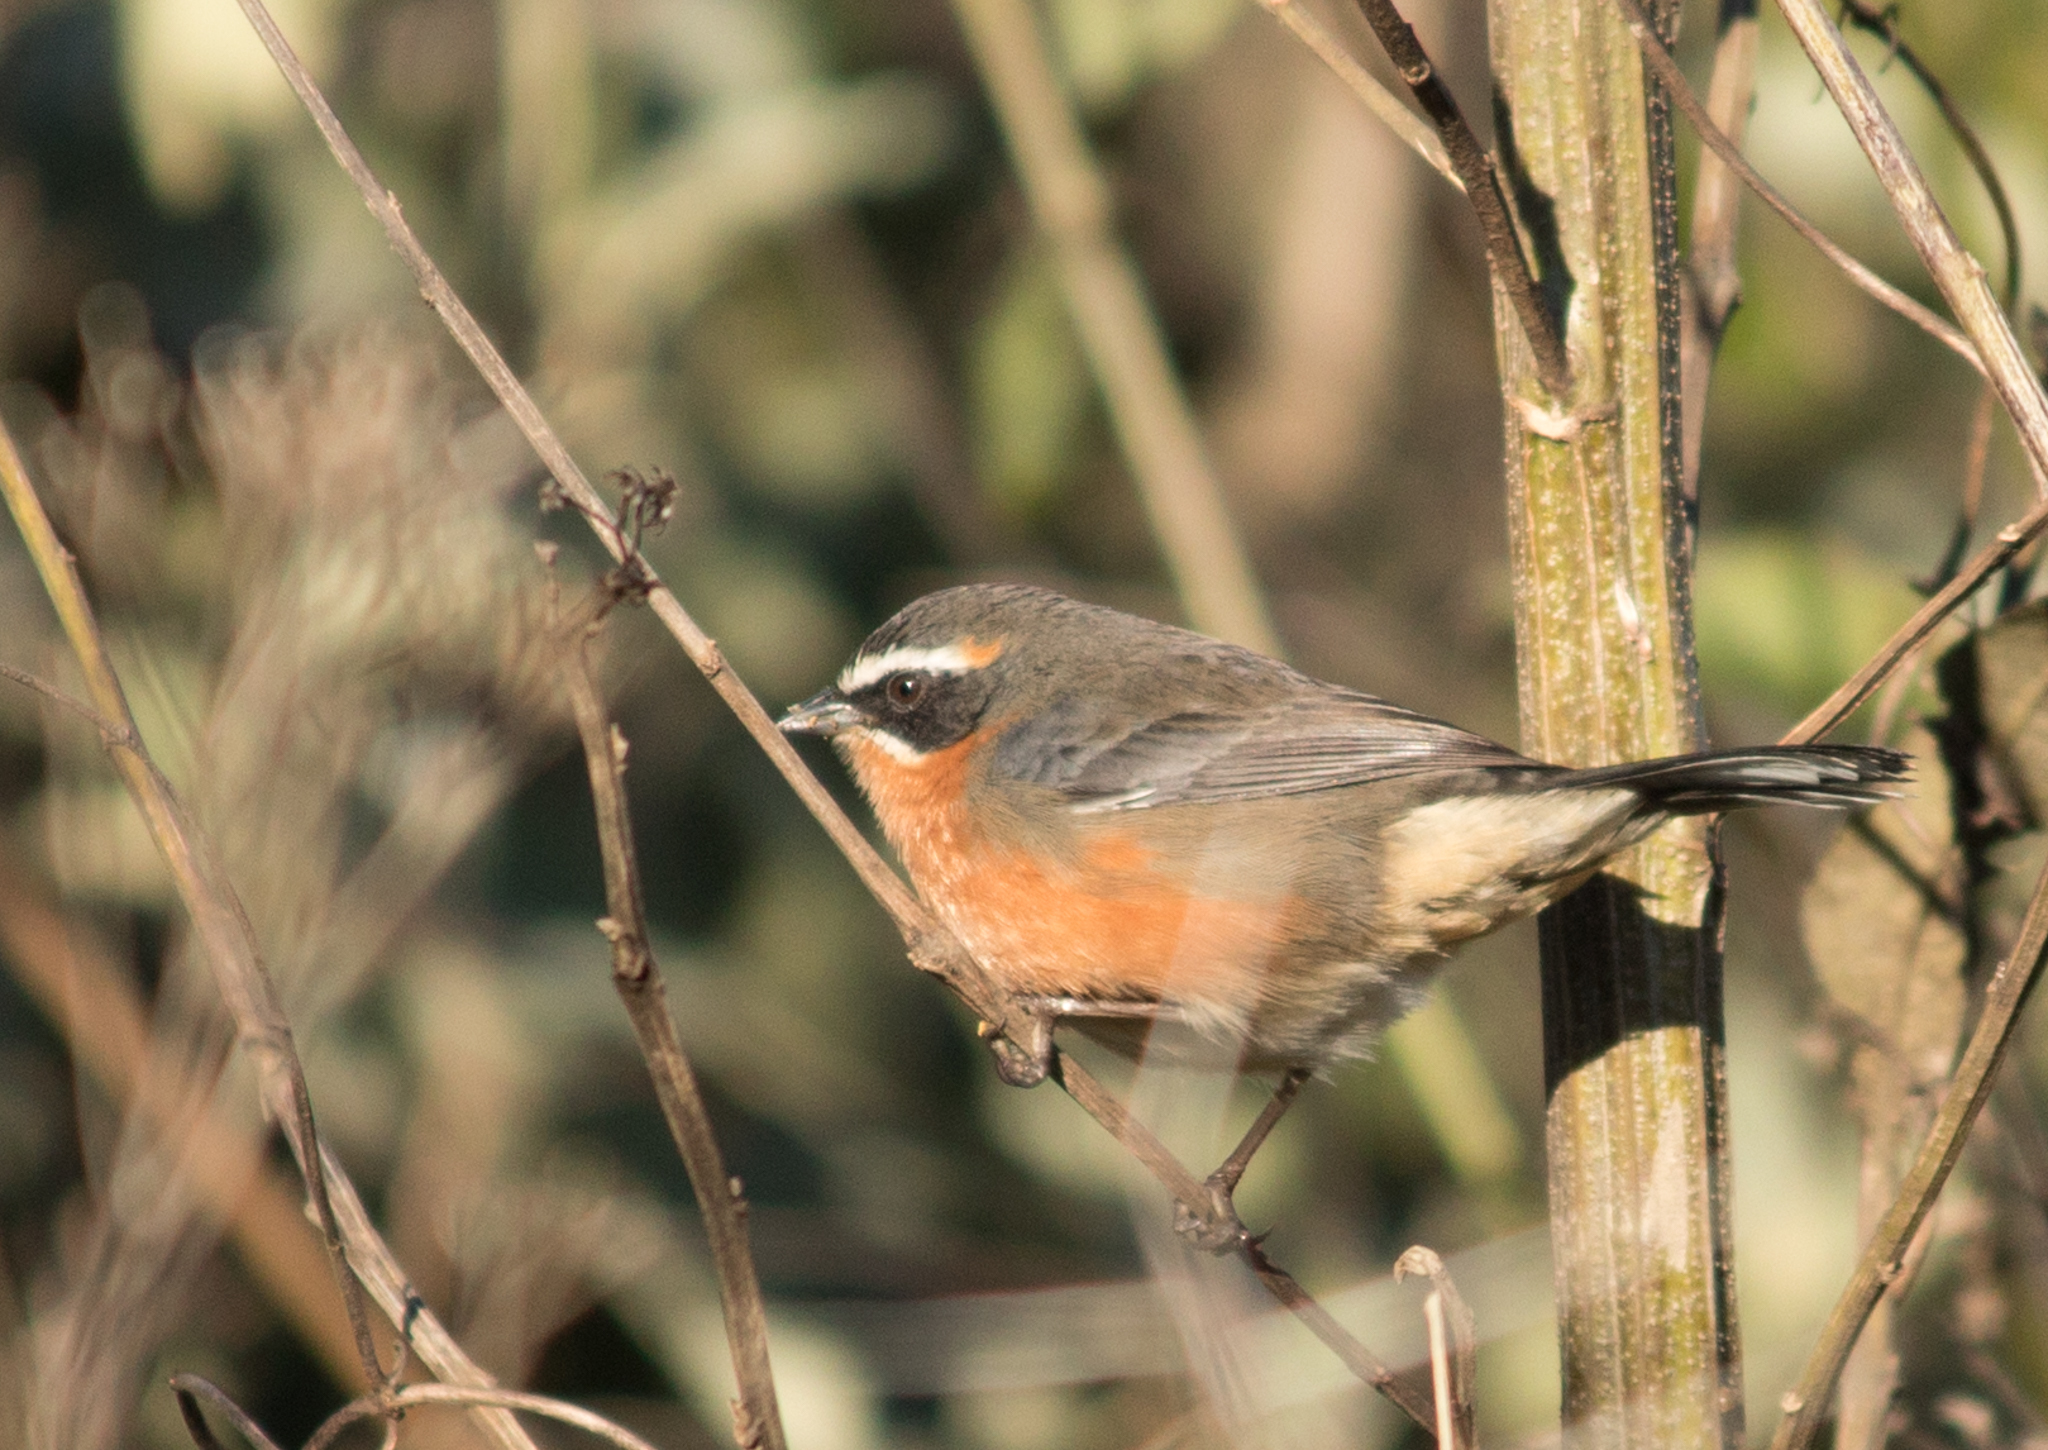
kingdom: Animalia
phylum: Chordata
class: Aves
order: Passeriformes
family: Thraupidae
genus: Poospiza
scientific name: Poospiza nigrorufa
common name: Black-and-rufous warbling finch
